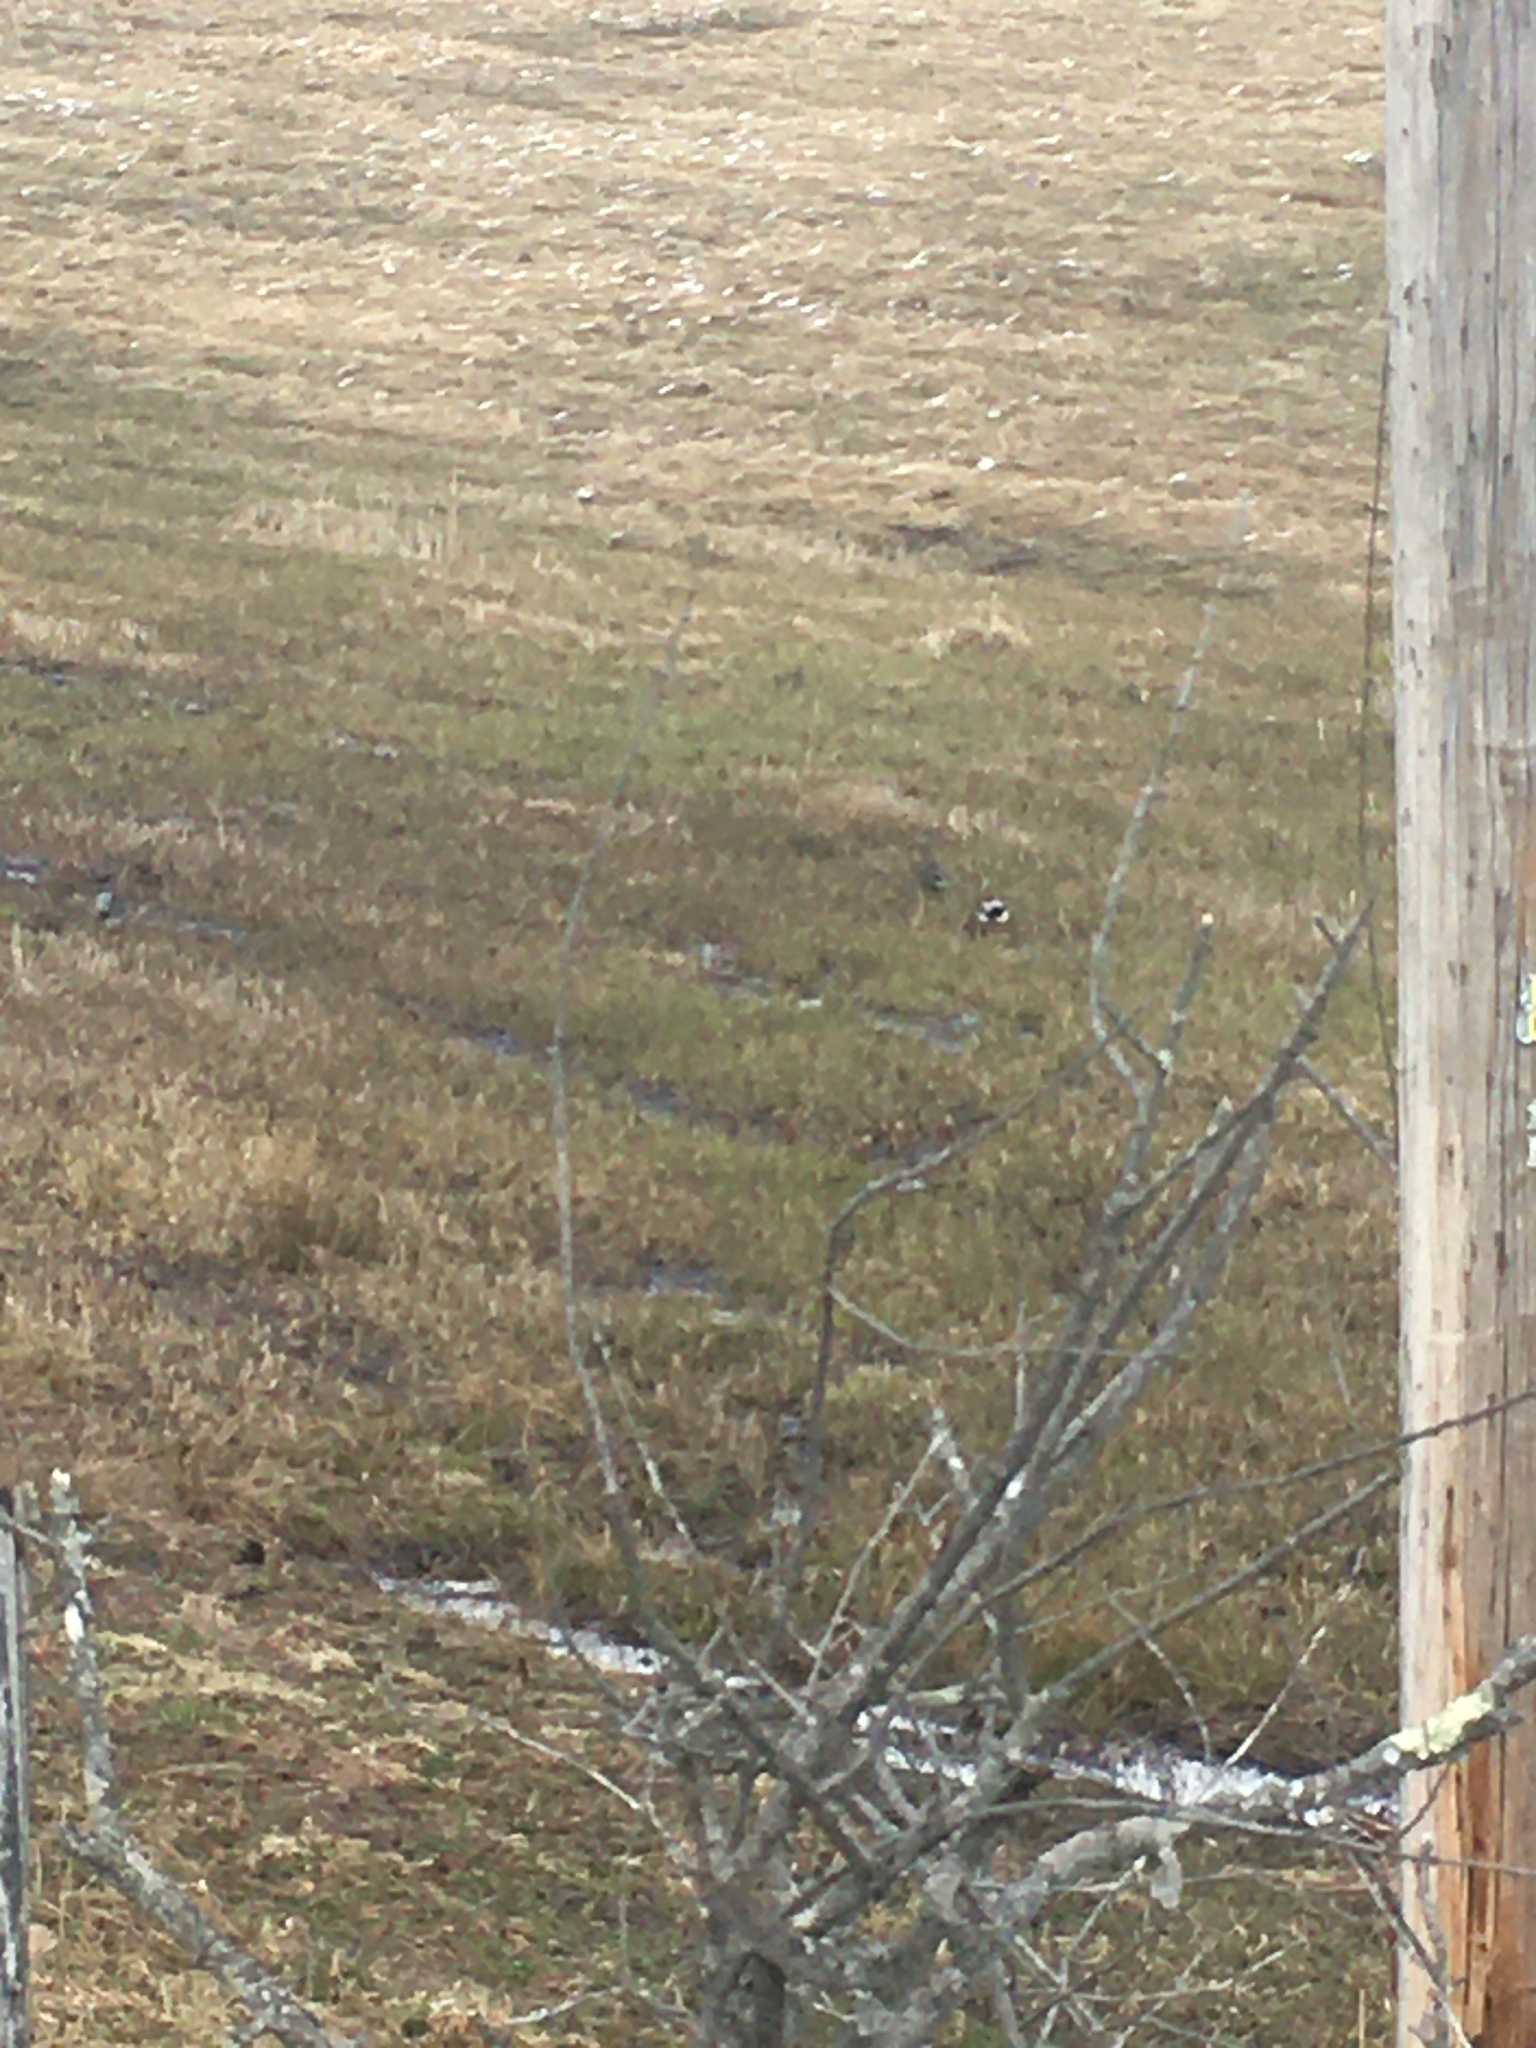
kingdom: Animalia
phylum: Chordata
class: Aves
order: Anseriformes
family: Anatidae
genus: Anas
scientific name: Anas platyrhynchos
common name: Mallard
